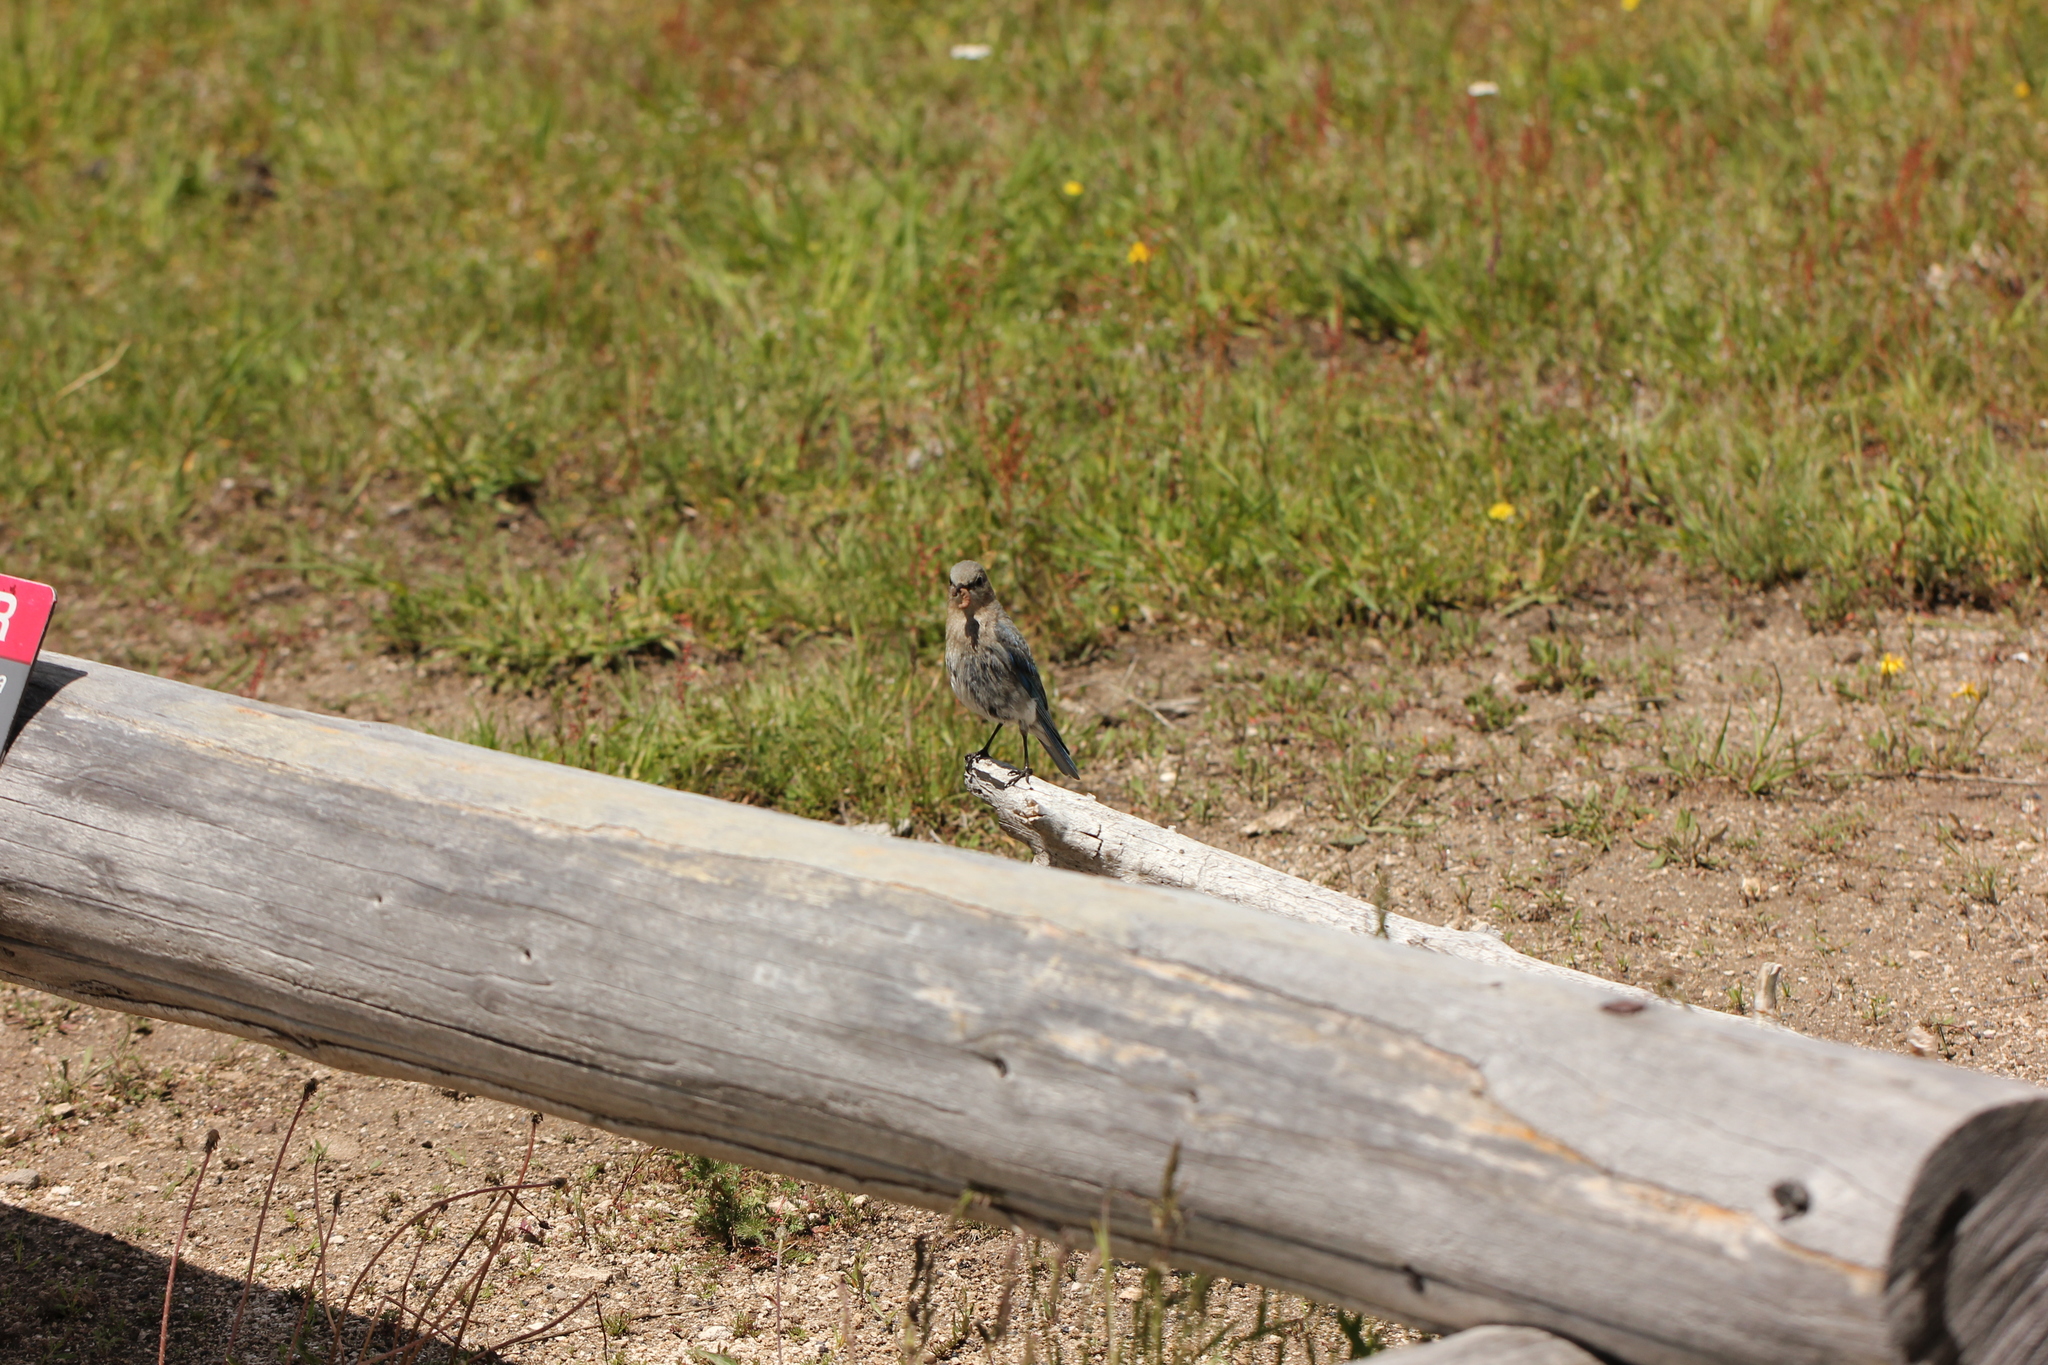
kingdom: Animalia
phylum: Chordata
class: Aves
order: Passeriformes
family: Turdidae
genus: Sialia
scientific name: Sialia currucoides
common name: Mountain bluebird
